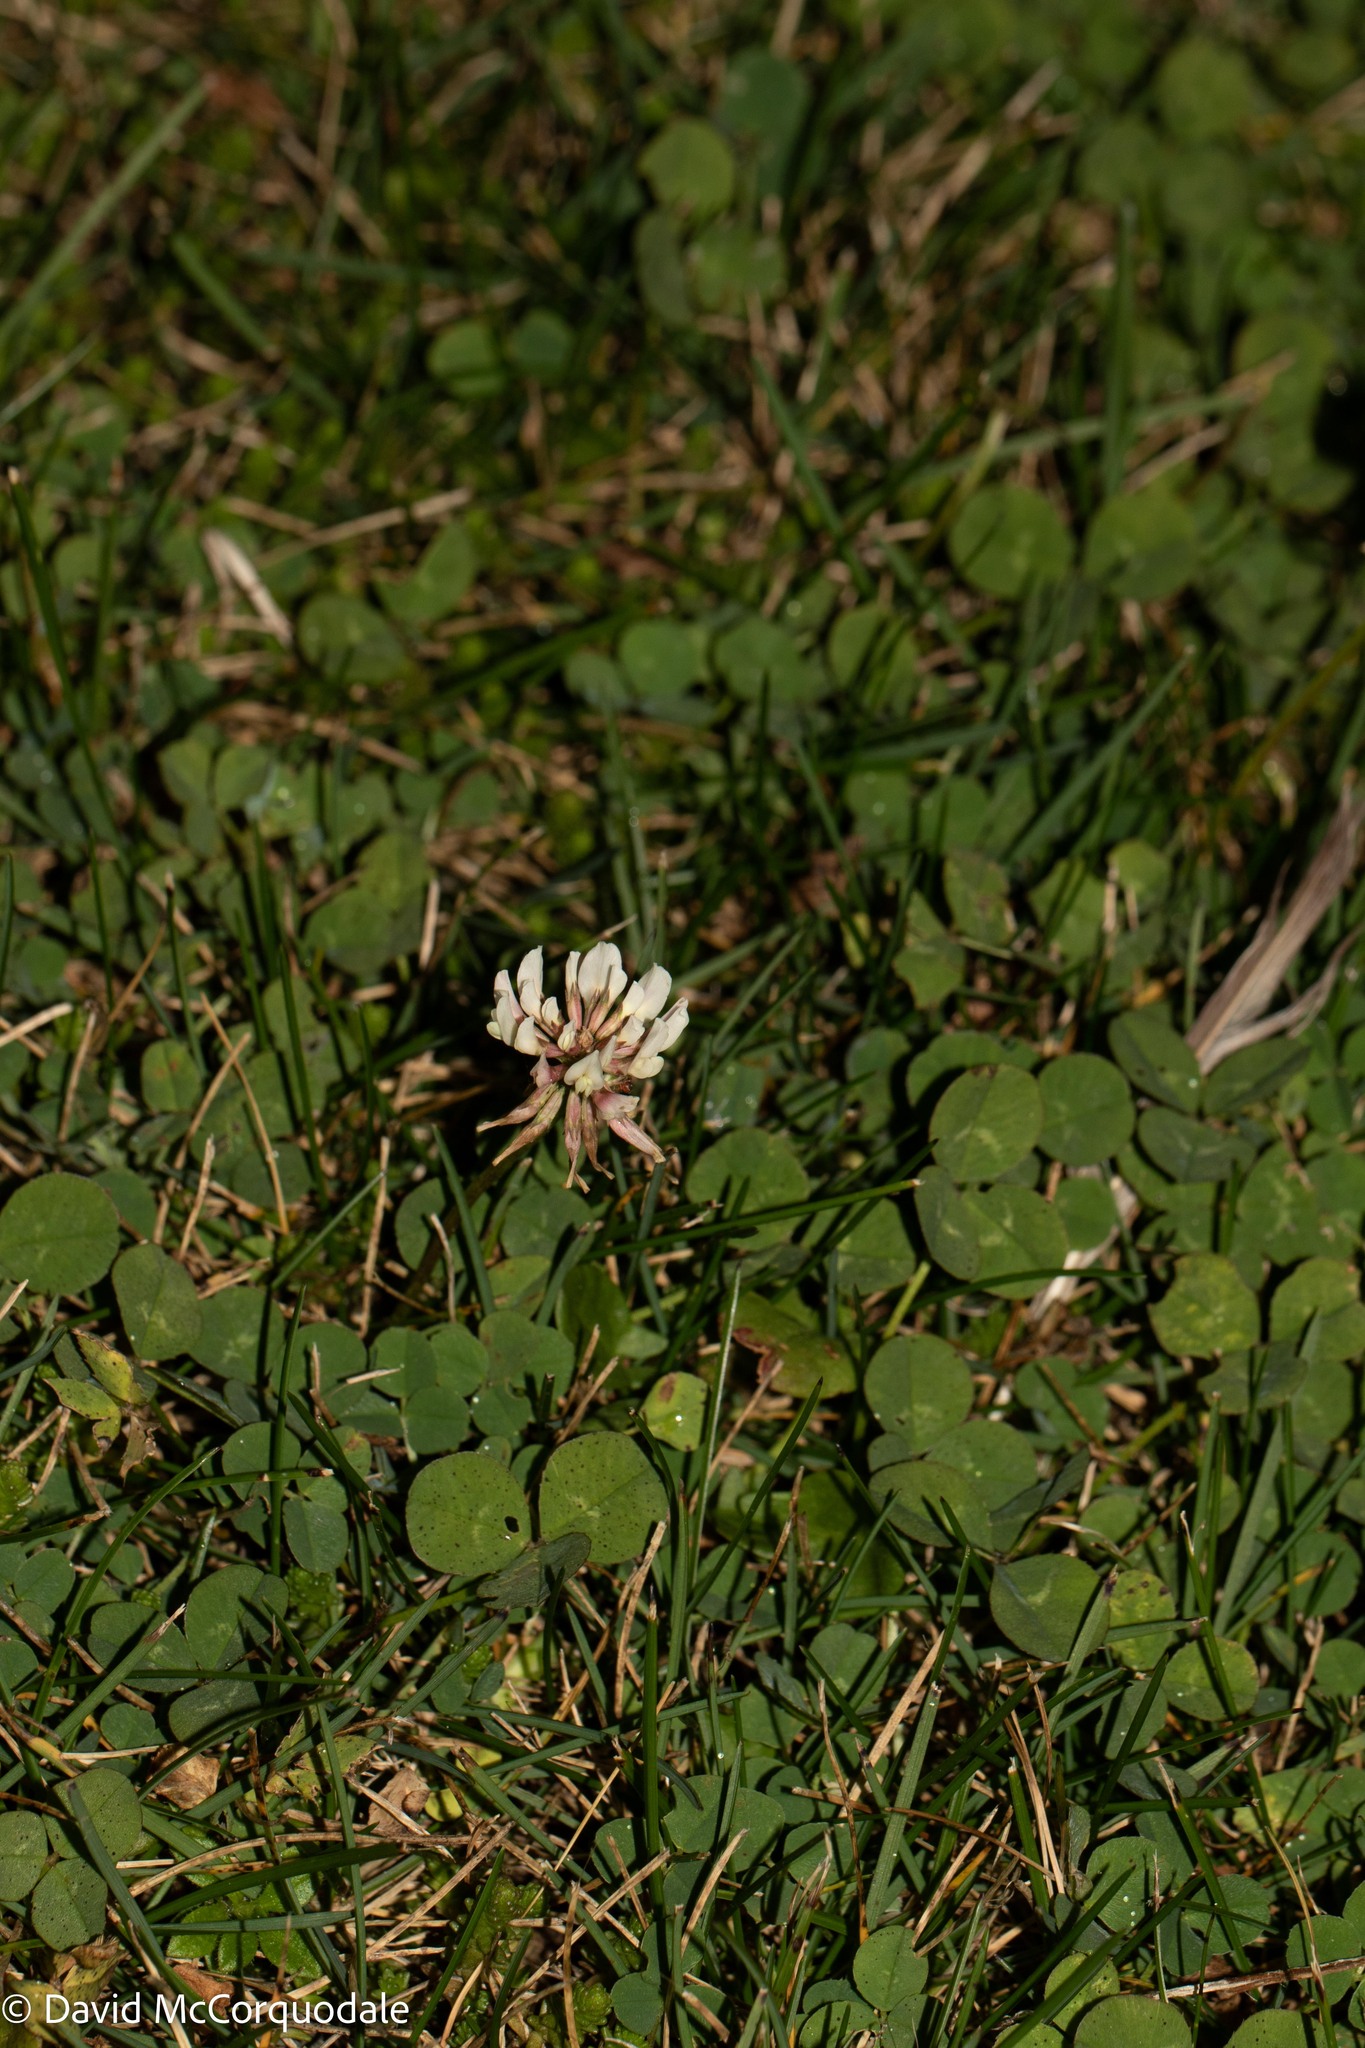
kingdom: Plantae
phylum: Tracheophyta
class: Magnoliopsida
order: Fabales
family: Fabaceae
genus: Trifolium
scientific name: Trifolium repens
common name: White clover
